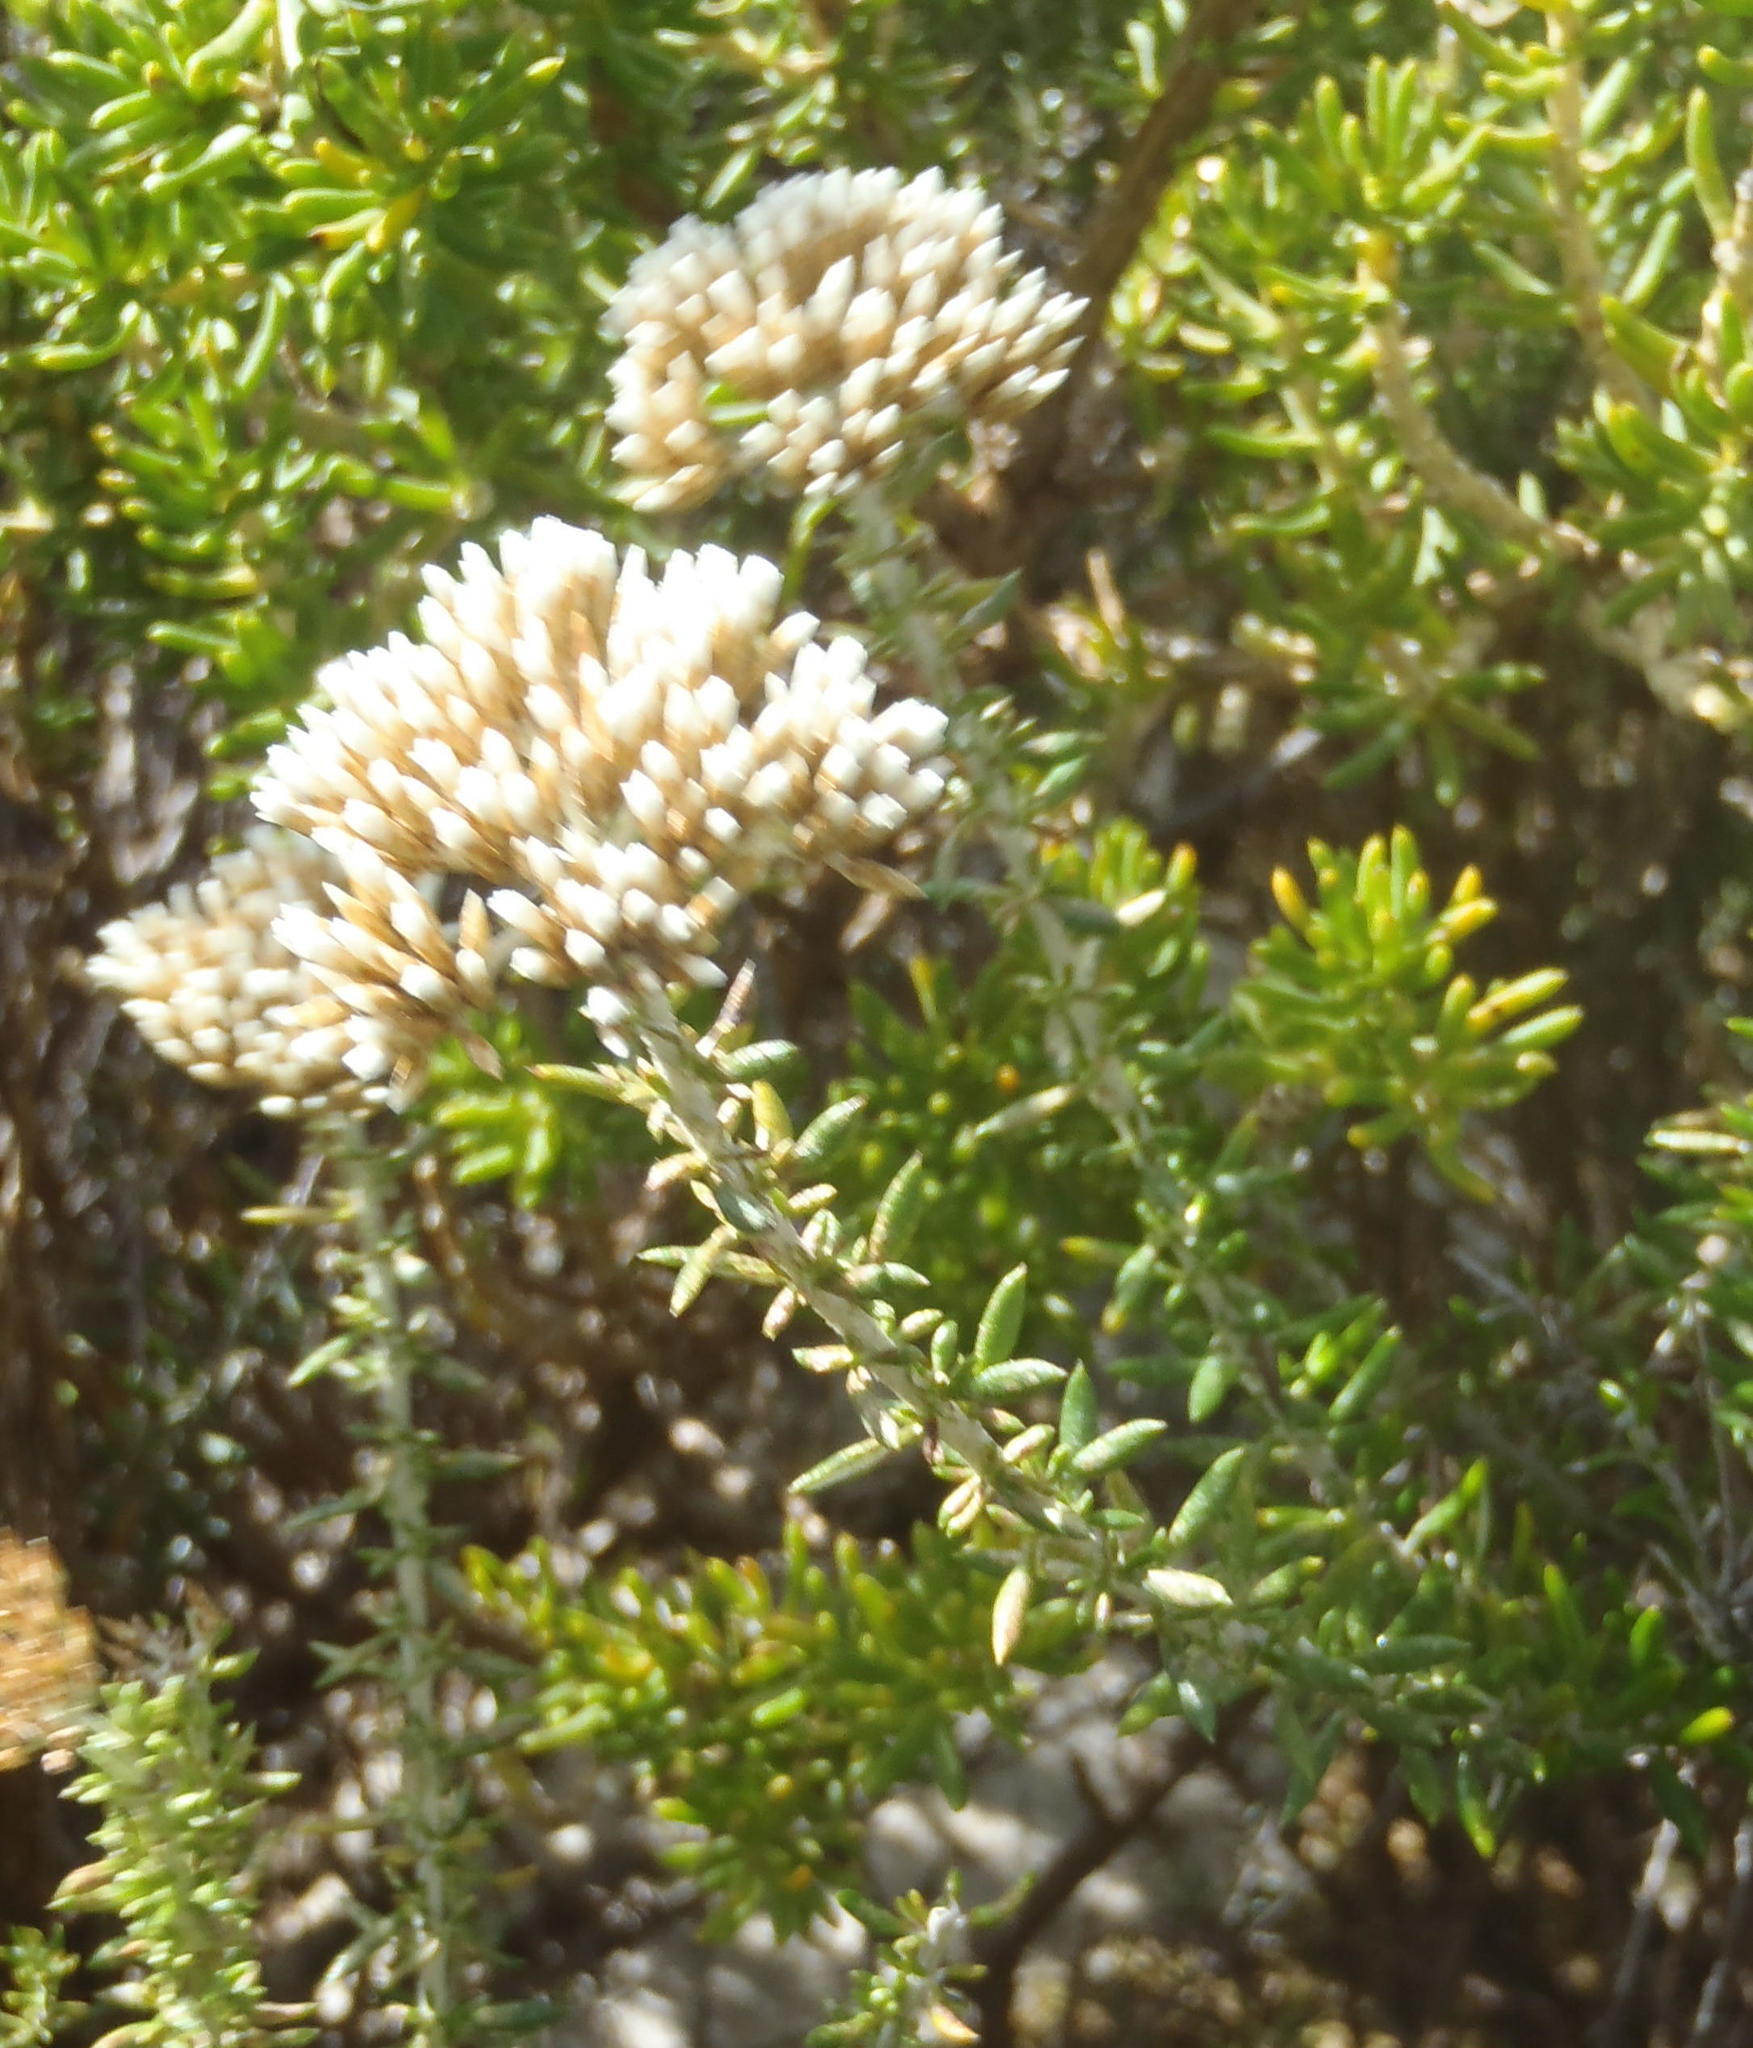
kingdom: Plantae
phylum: Tracheophyta
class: Magnoliopsida
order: Asterales
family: Asteraceae
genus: Metalasia
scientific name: Metalasia muricata
